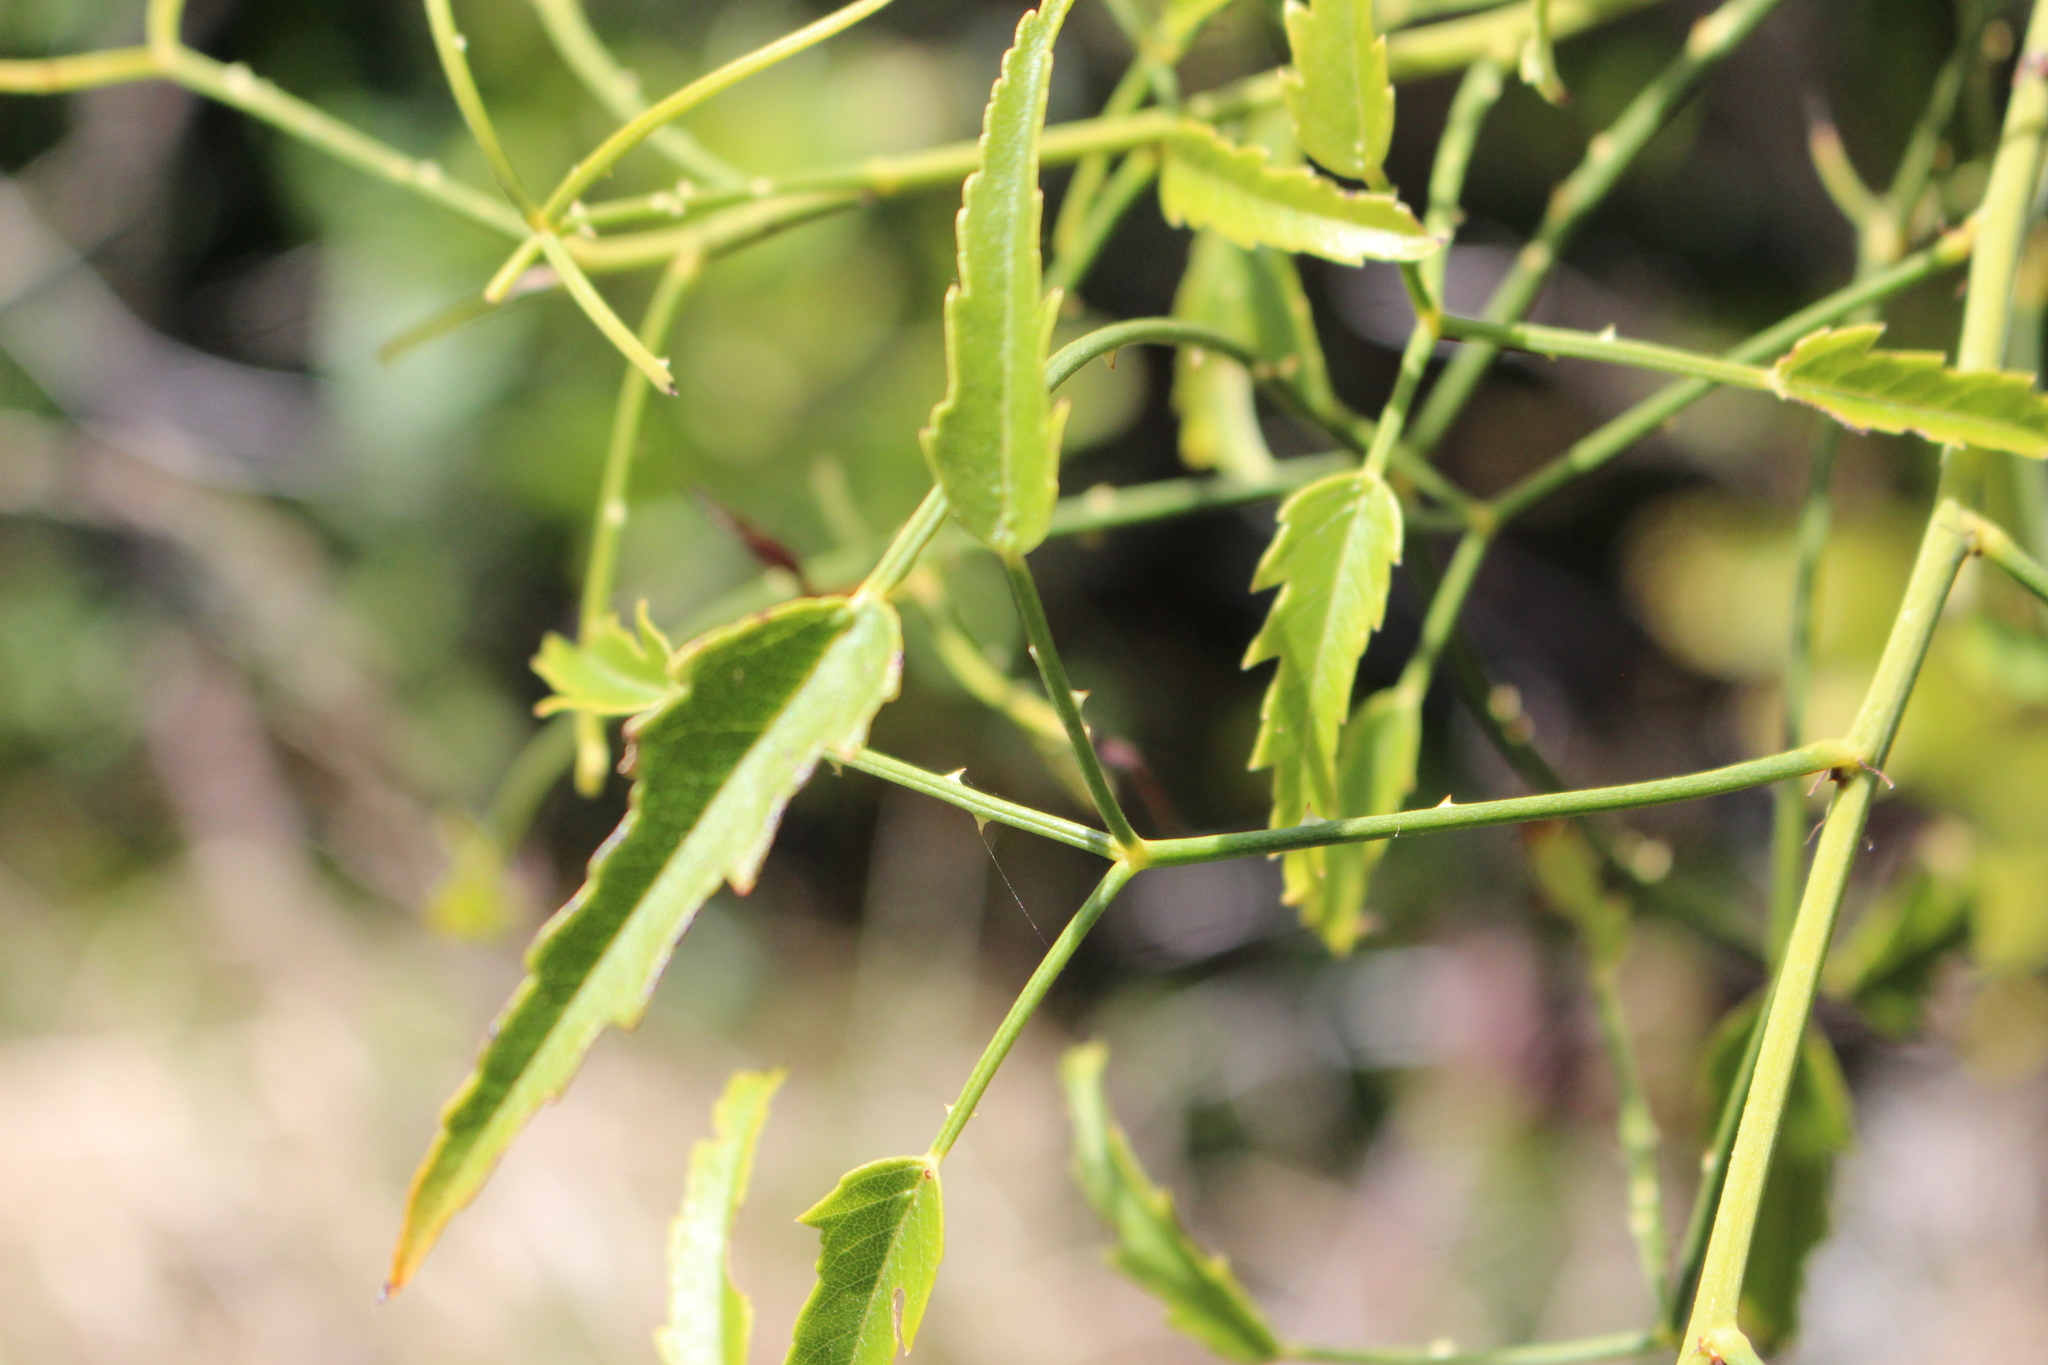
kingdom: Plantae
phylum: Tracheophyta
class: Magnoliopsida
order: Rosales
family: Rosaceae
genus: Rubus
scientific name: Rubus squarrosus
